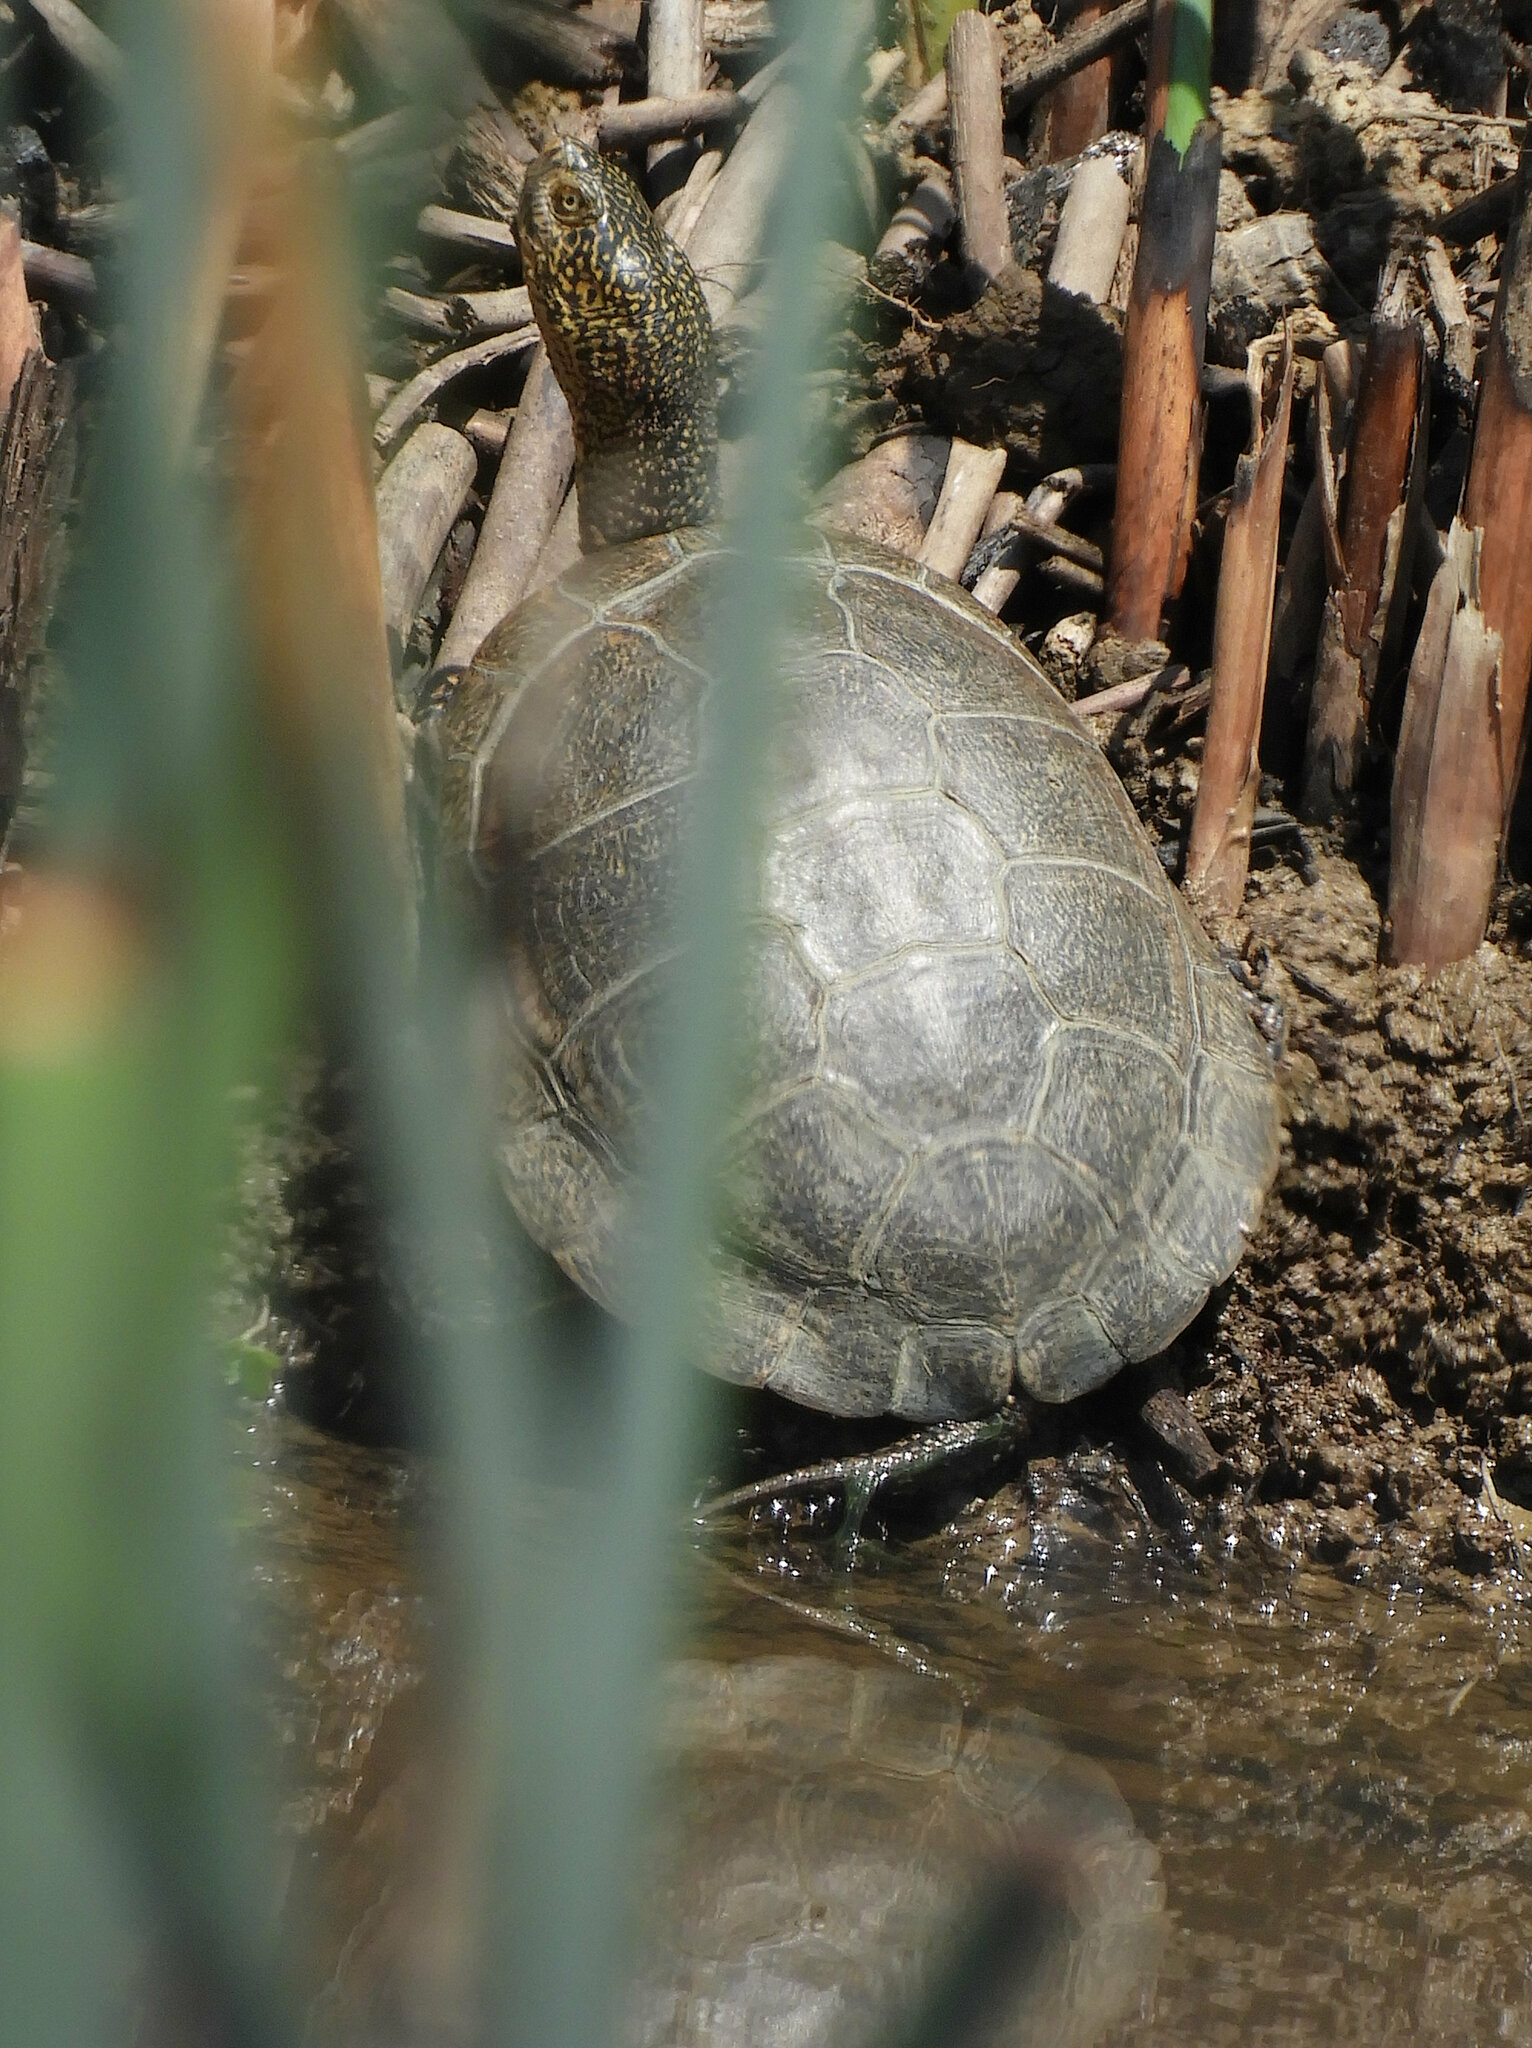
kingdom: Animalia
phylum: Chordata
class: Testudines
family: Emydidae
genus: Actinemys
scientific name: Actinemys marmorata
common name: Western pond turtle
